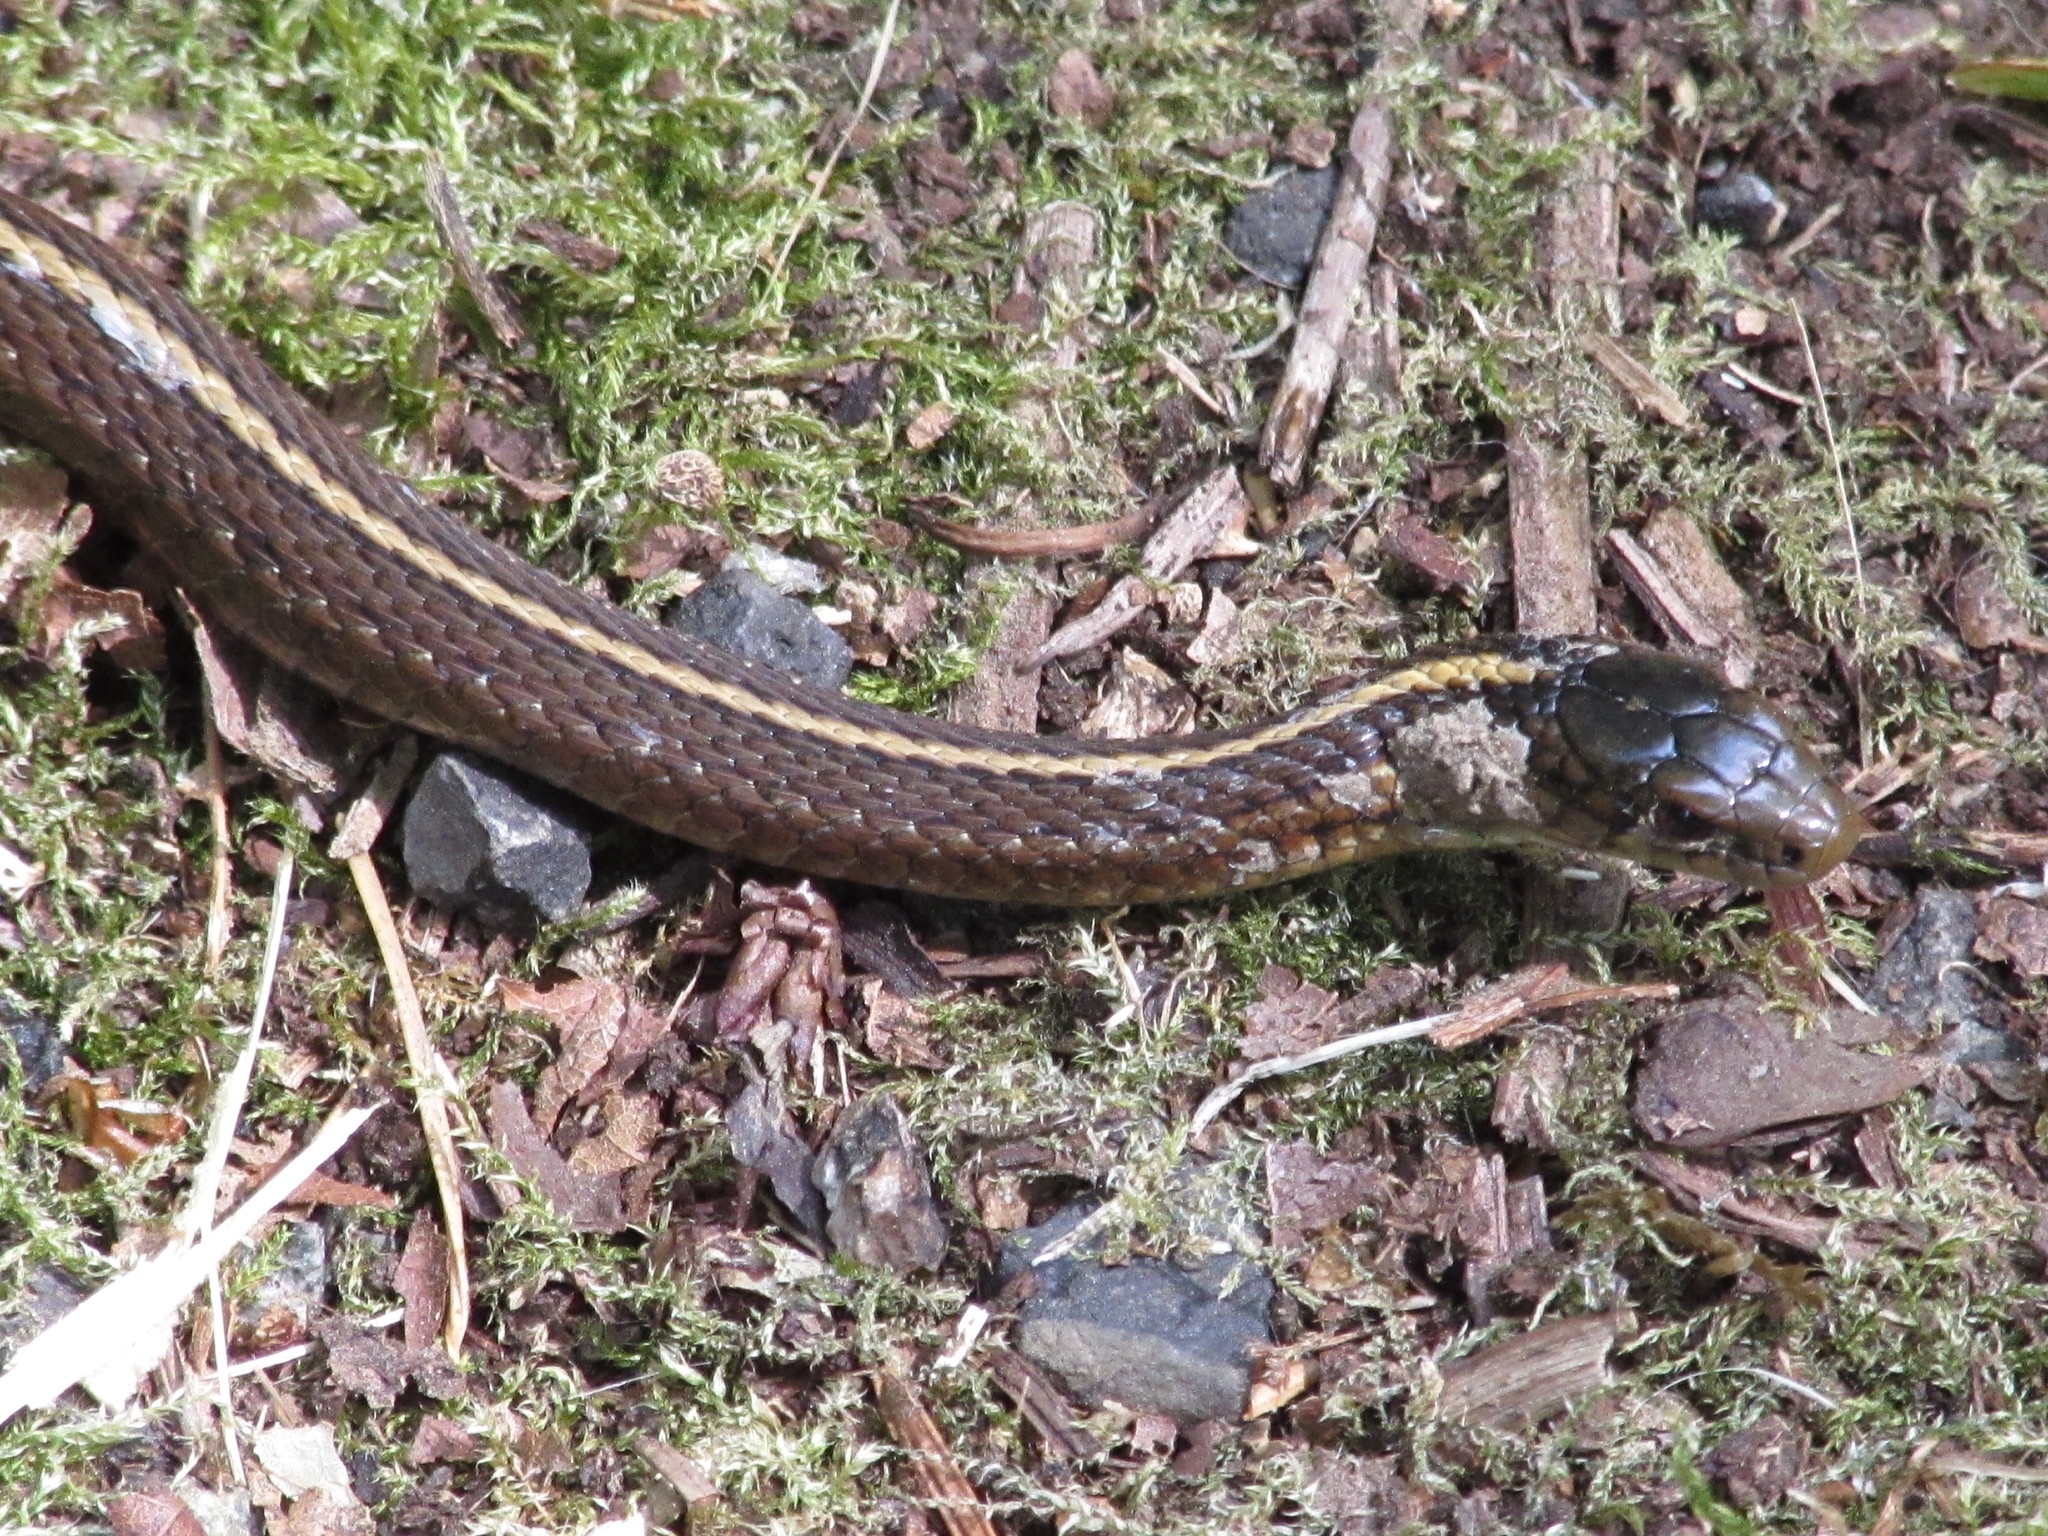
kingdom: Animalia
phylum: Chordata
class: Squamata
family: Colubridae
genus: Thamnophis
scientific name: Thamnophis ordinoides
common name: Northwestern garter snake
